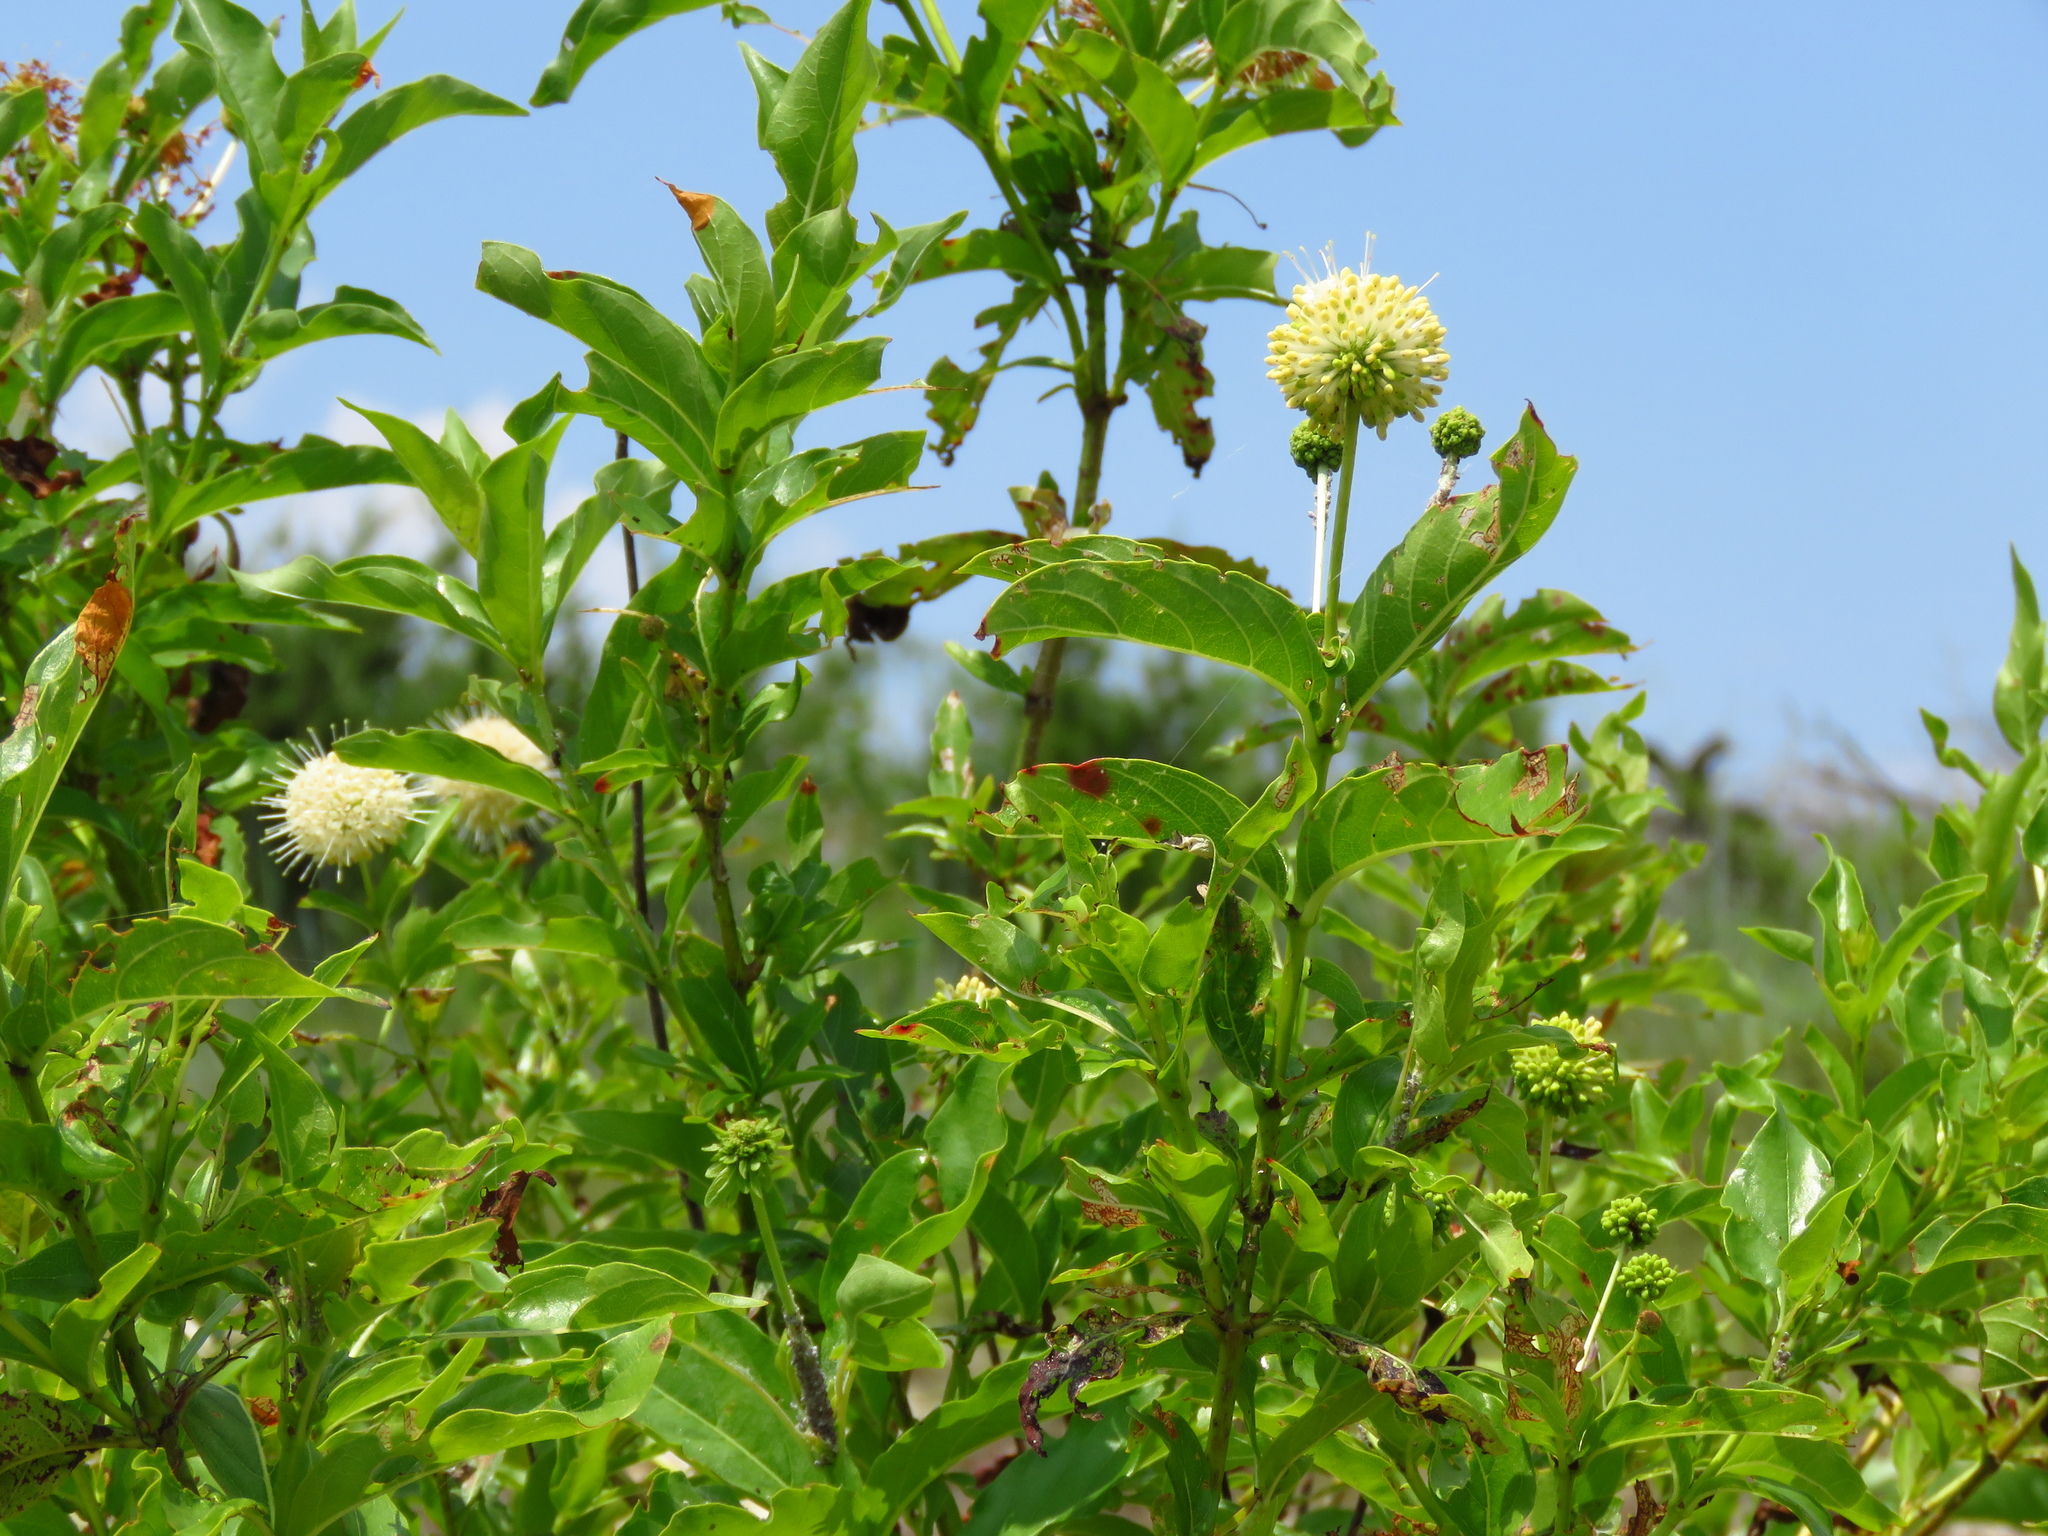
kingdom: Plantae
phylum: Tracheophyta
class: Magnoliopsida
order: Gentianales
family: Rubiaceae
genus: Cephalanthus
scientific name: Cephalanthus occidentalis
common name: Button-willow
